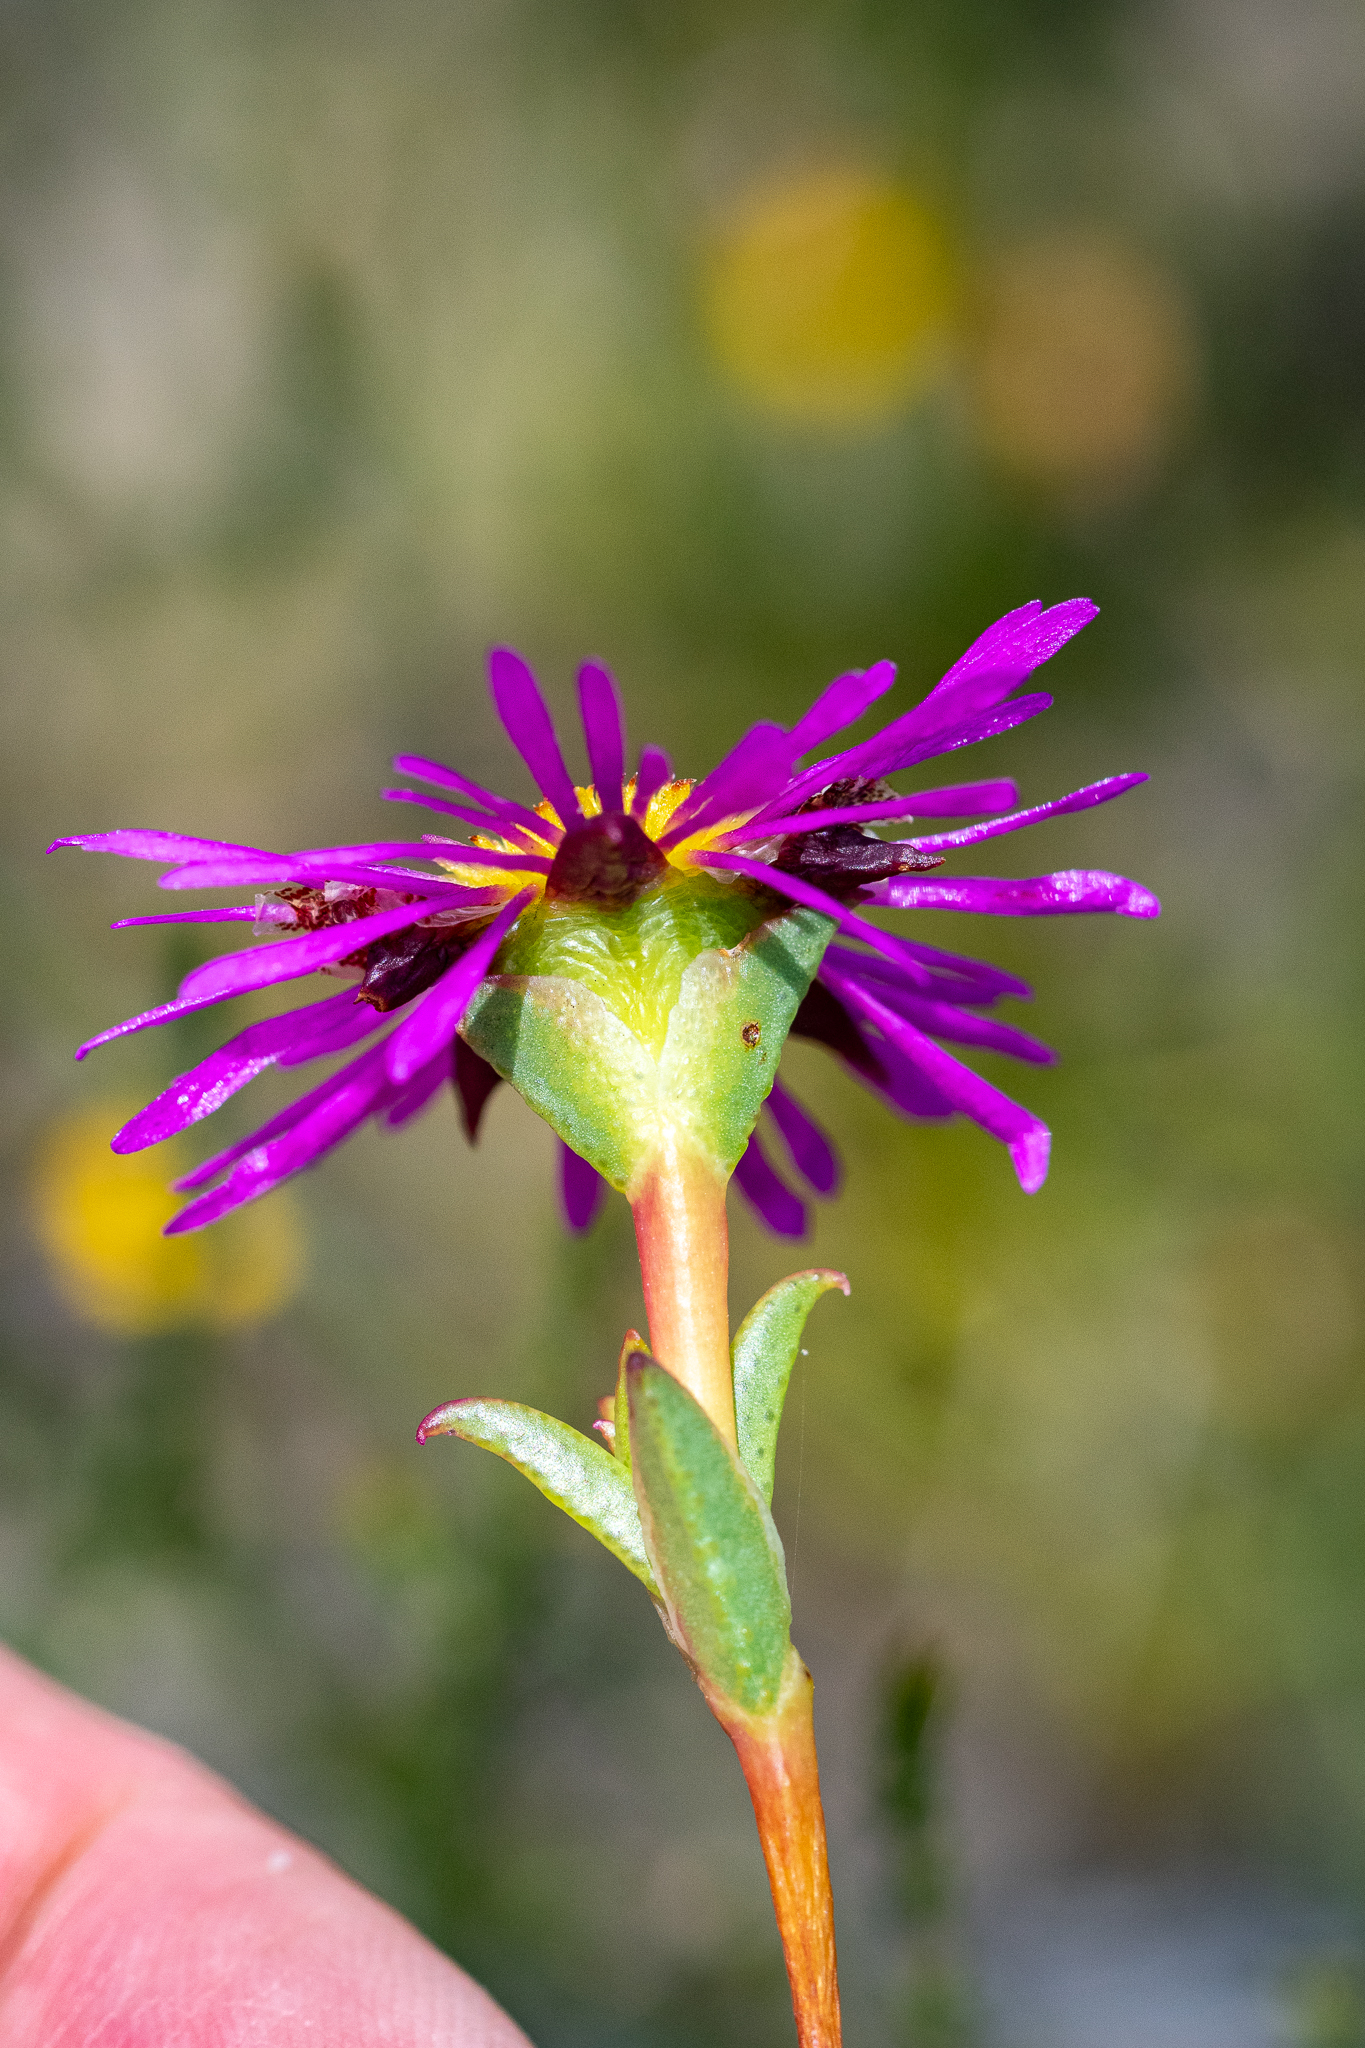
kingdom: Plantae
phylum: Tracheophyta
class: Magnoliopsida
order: Caryophyllales
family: Aizoaceae
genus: Erepsia
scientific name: Erepsia anceps
